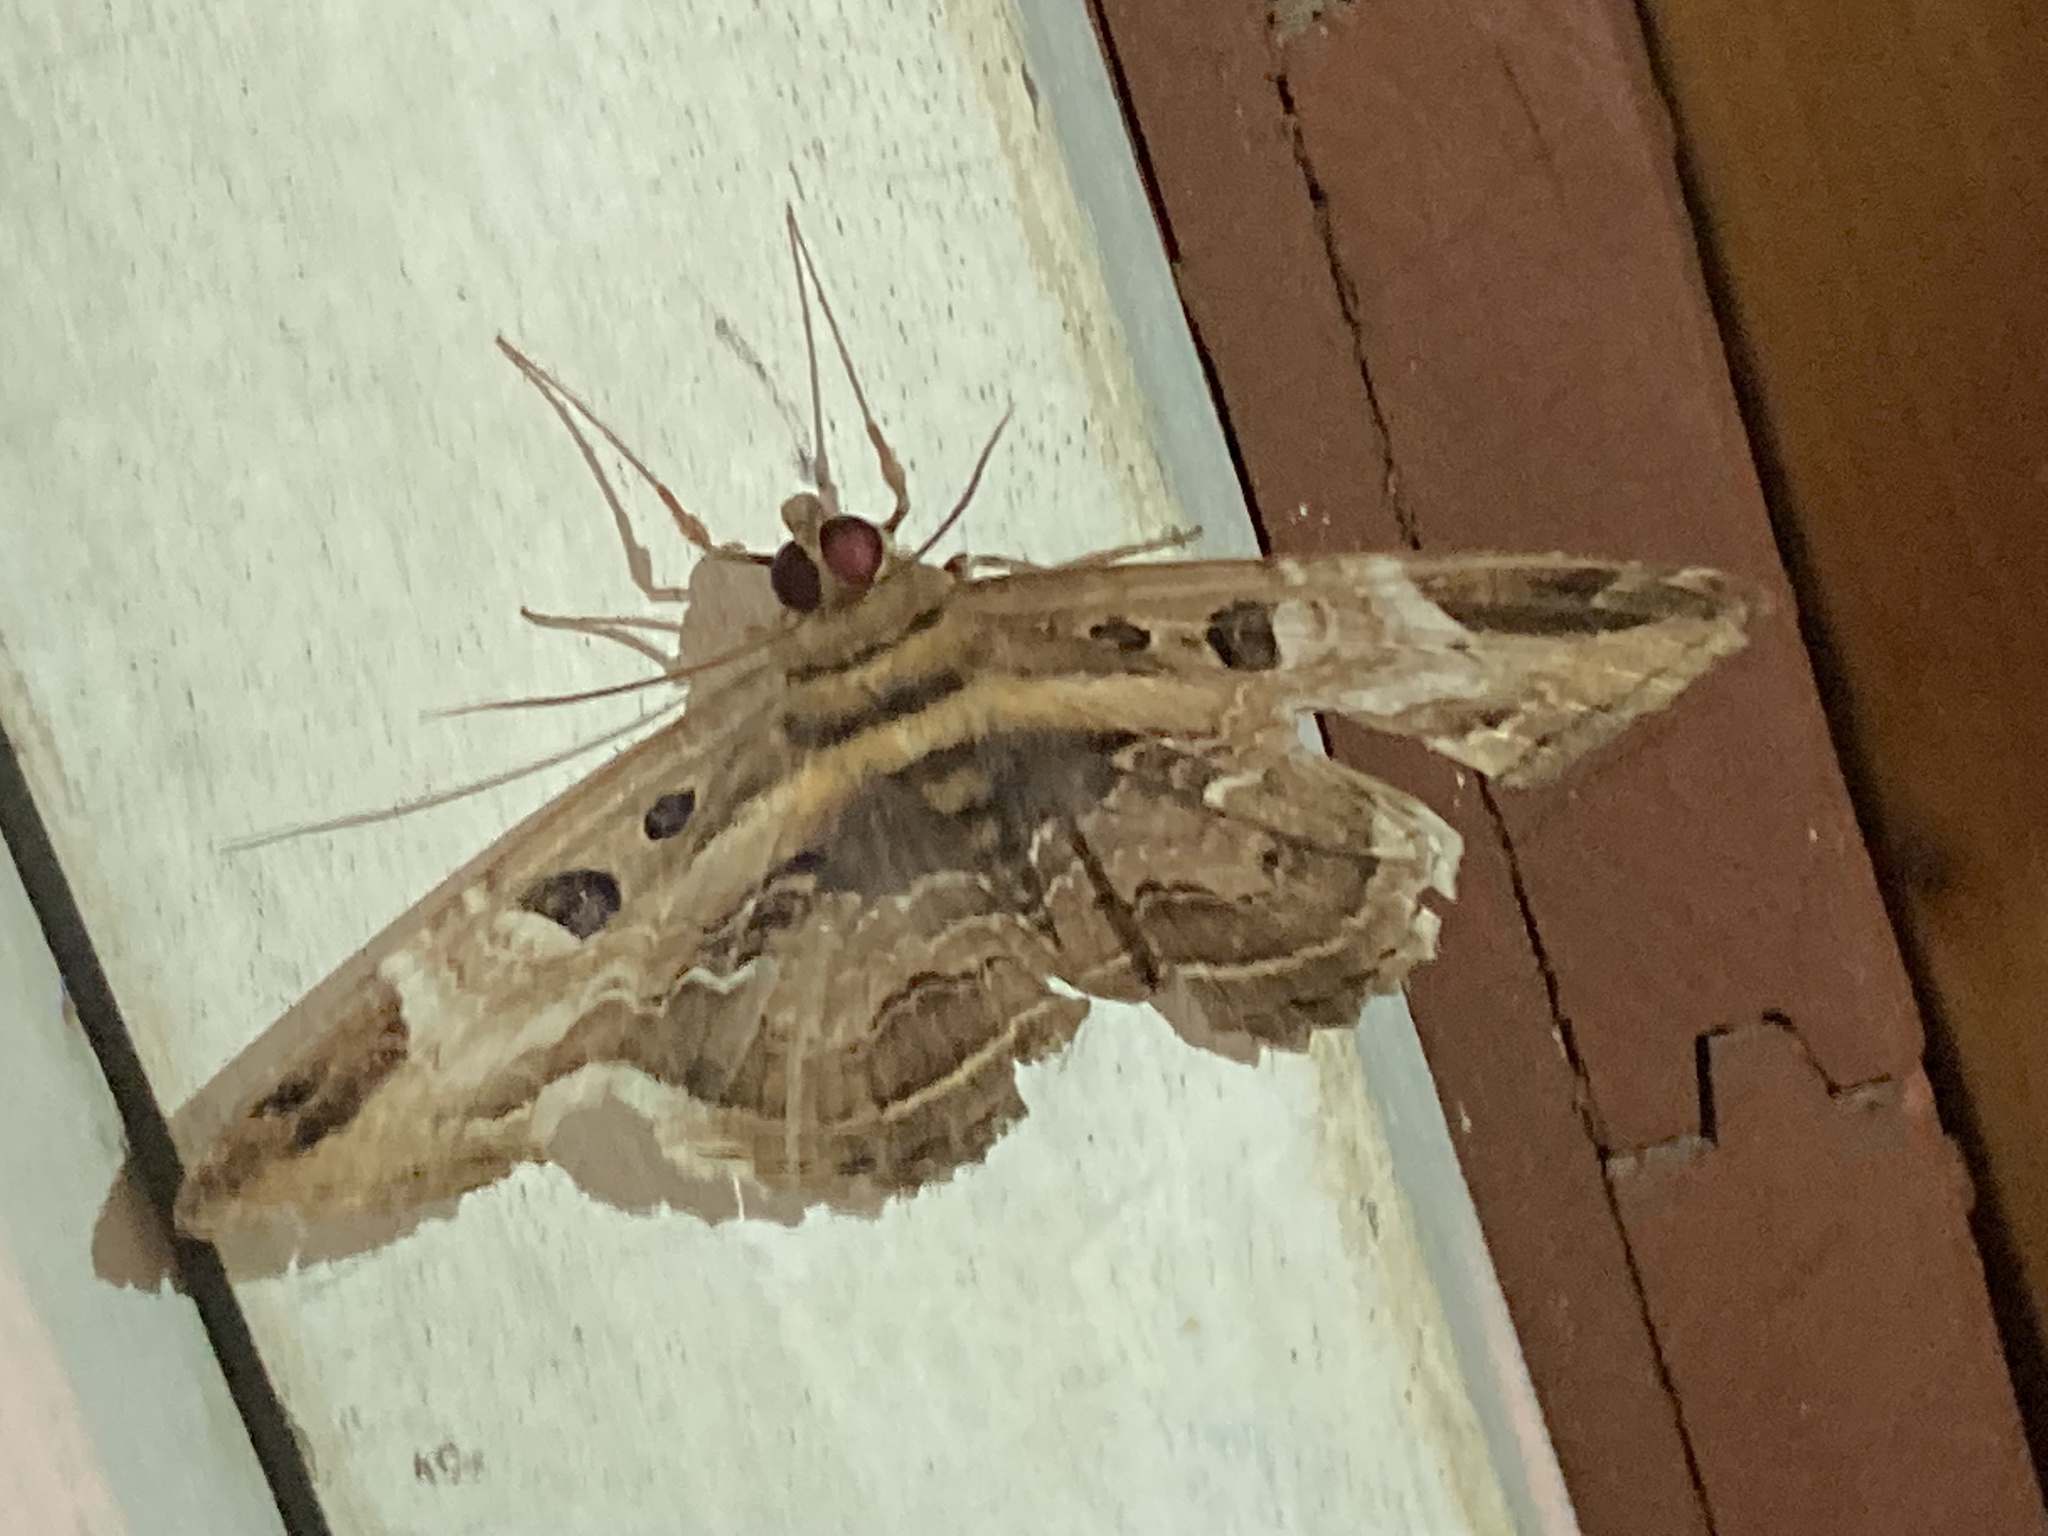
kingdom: Animalia
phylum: Arthropoda
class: Insecta
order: Lepidoptera
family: Erebidae
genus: Feigeria
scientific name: Feigeria herilia
